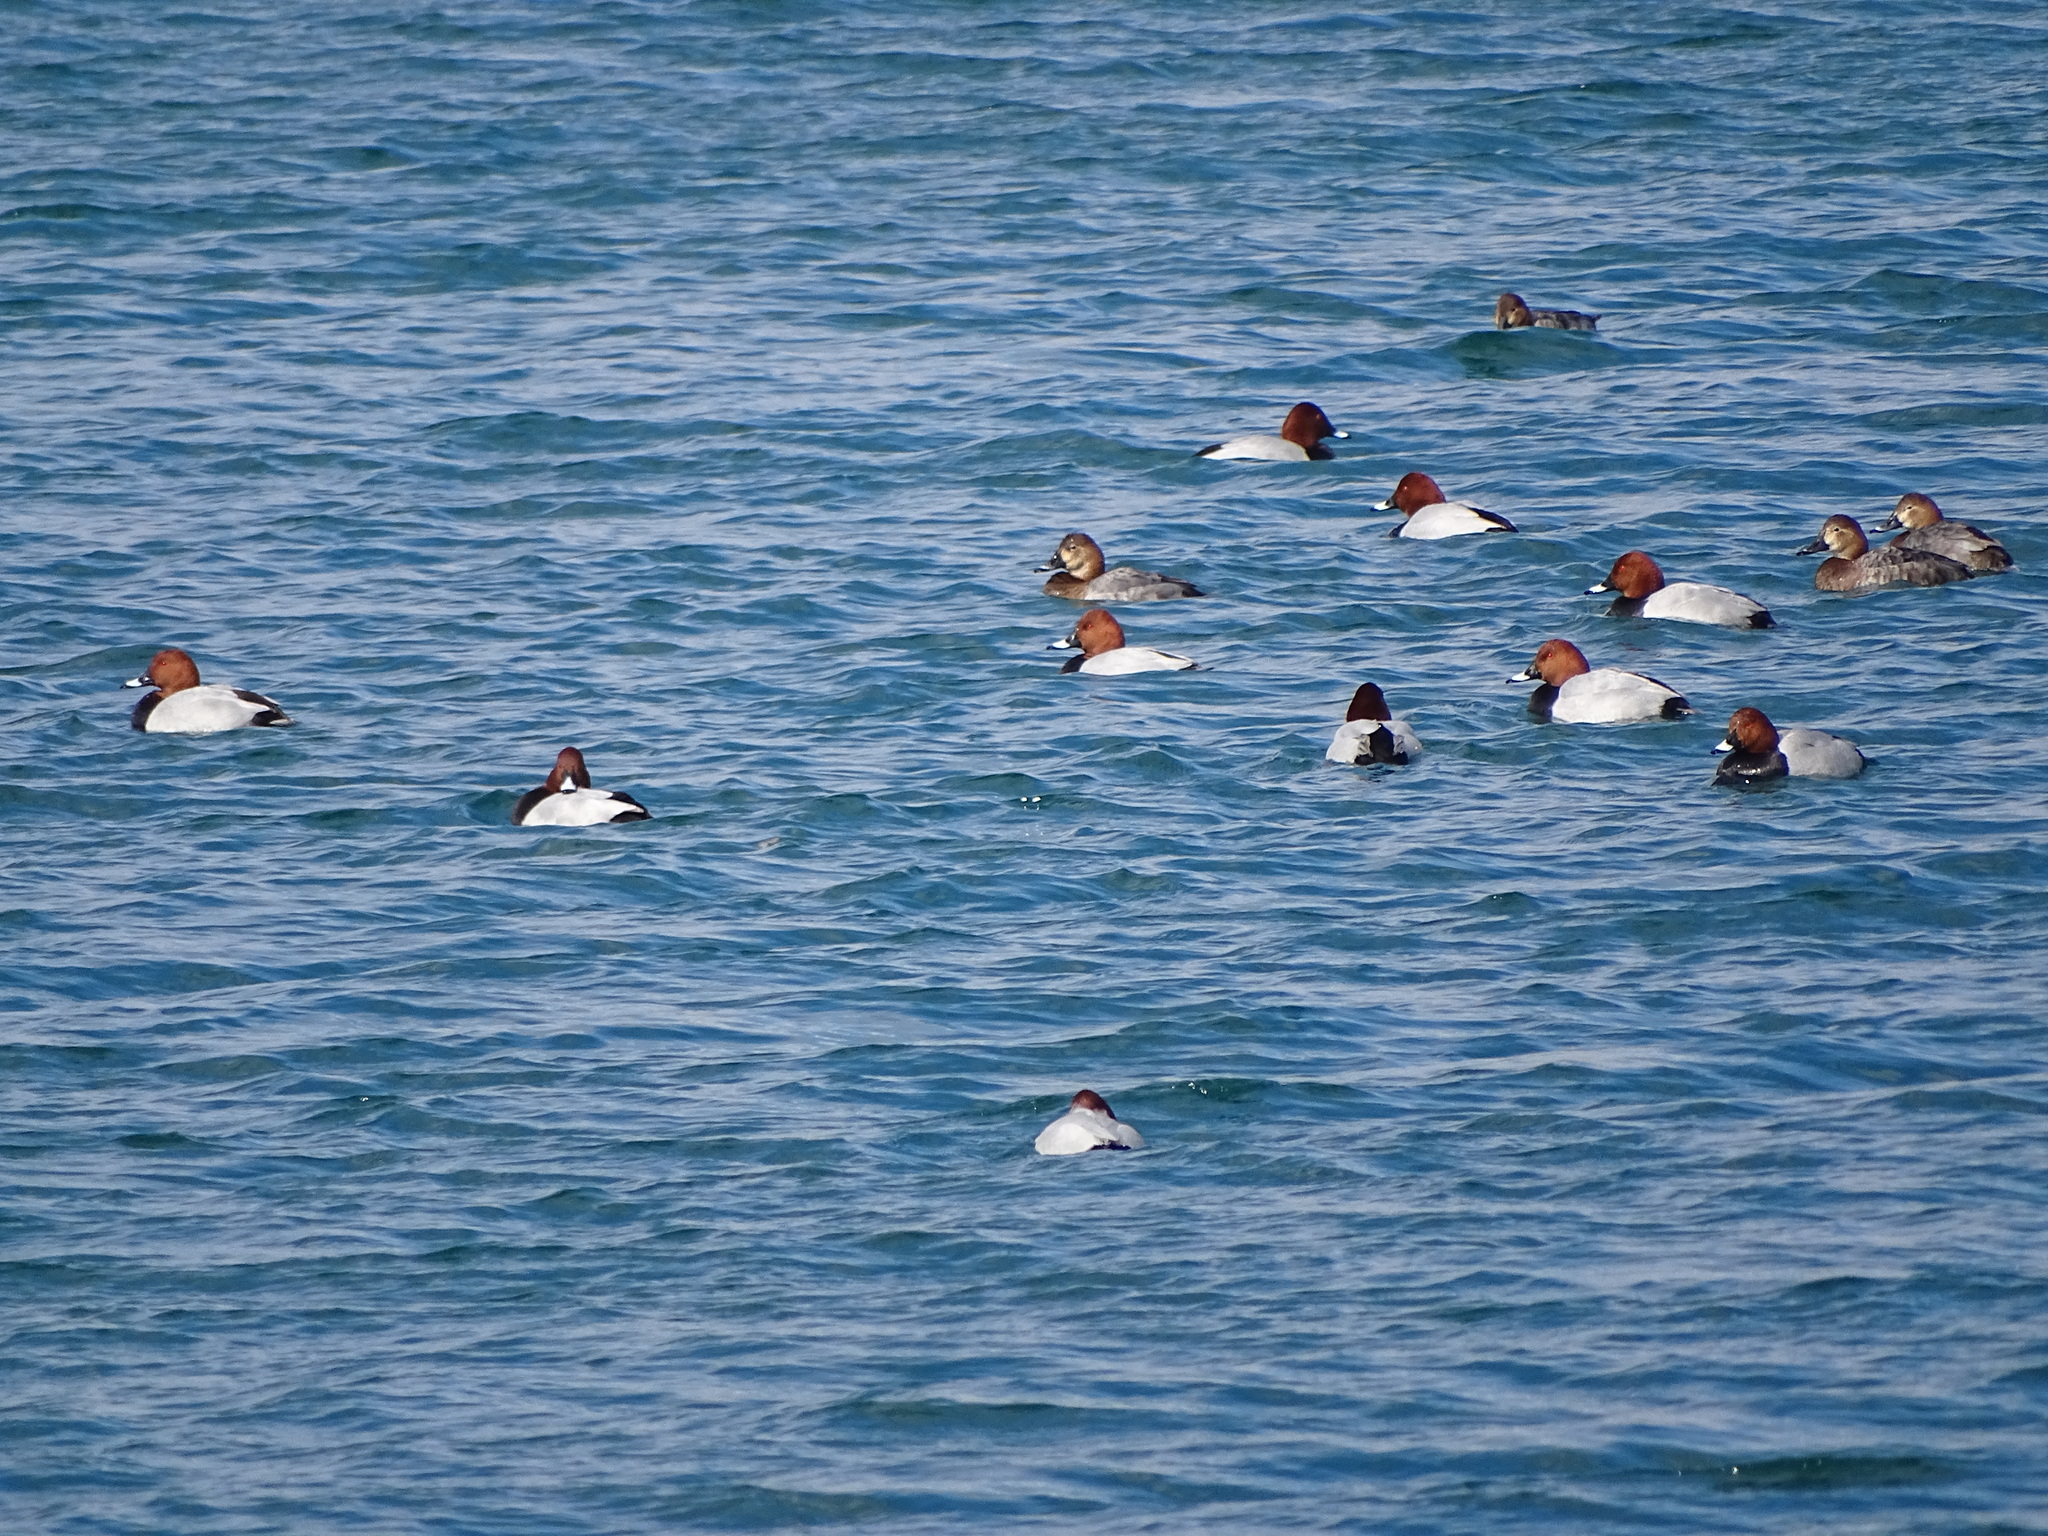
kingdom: Animalia
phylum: Chordata
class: Aves
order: Anseriformes
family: Anatidae
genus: Aythya
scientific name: Aythya ferina
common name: Common pochard
